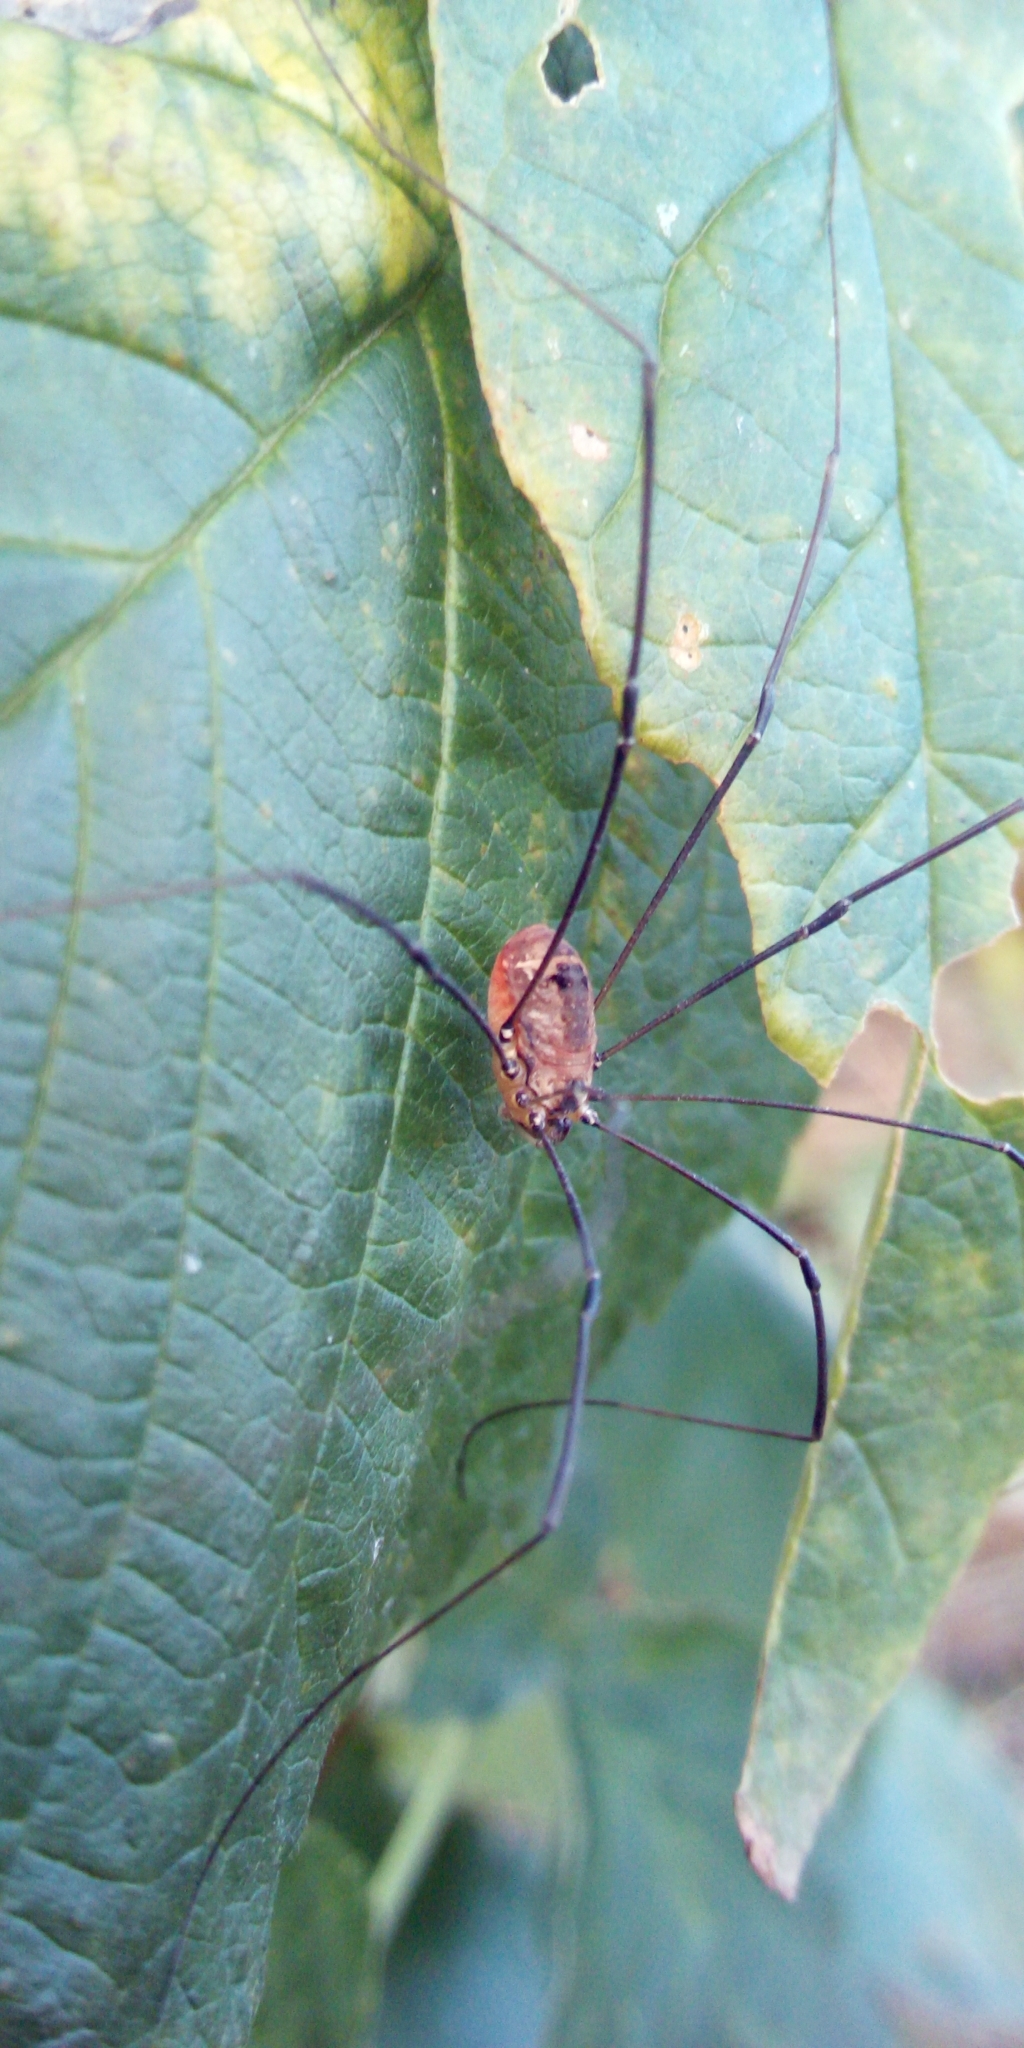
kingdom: Animalia
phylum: Arthropoda
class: Arachnida
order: Opiliones
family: Sclerosomatidae
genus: Leiobunum
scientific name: Leiobunum rotundum
